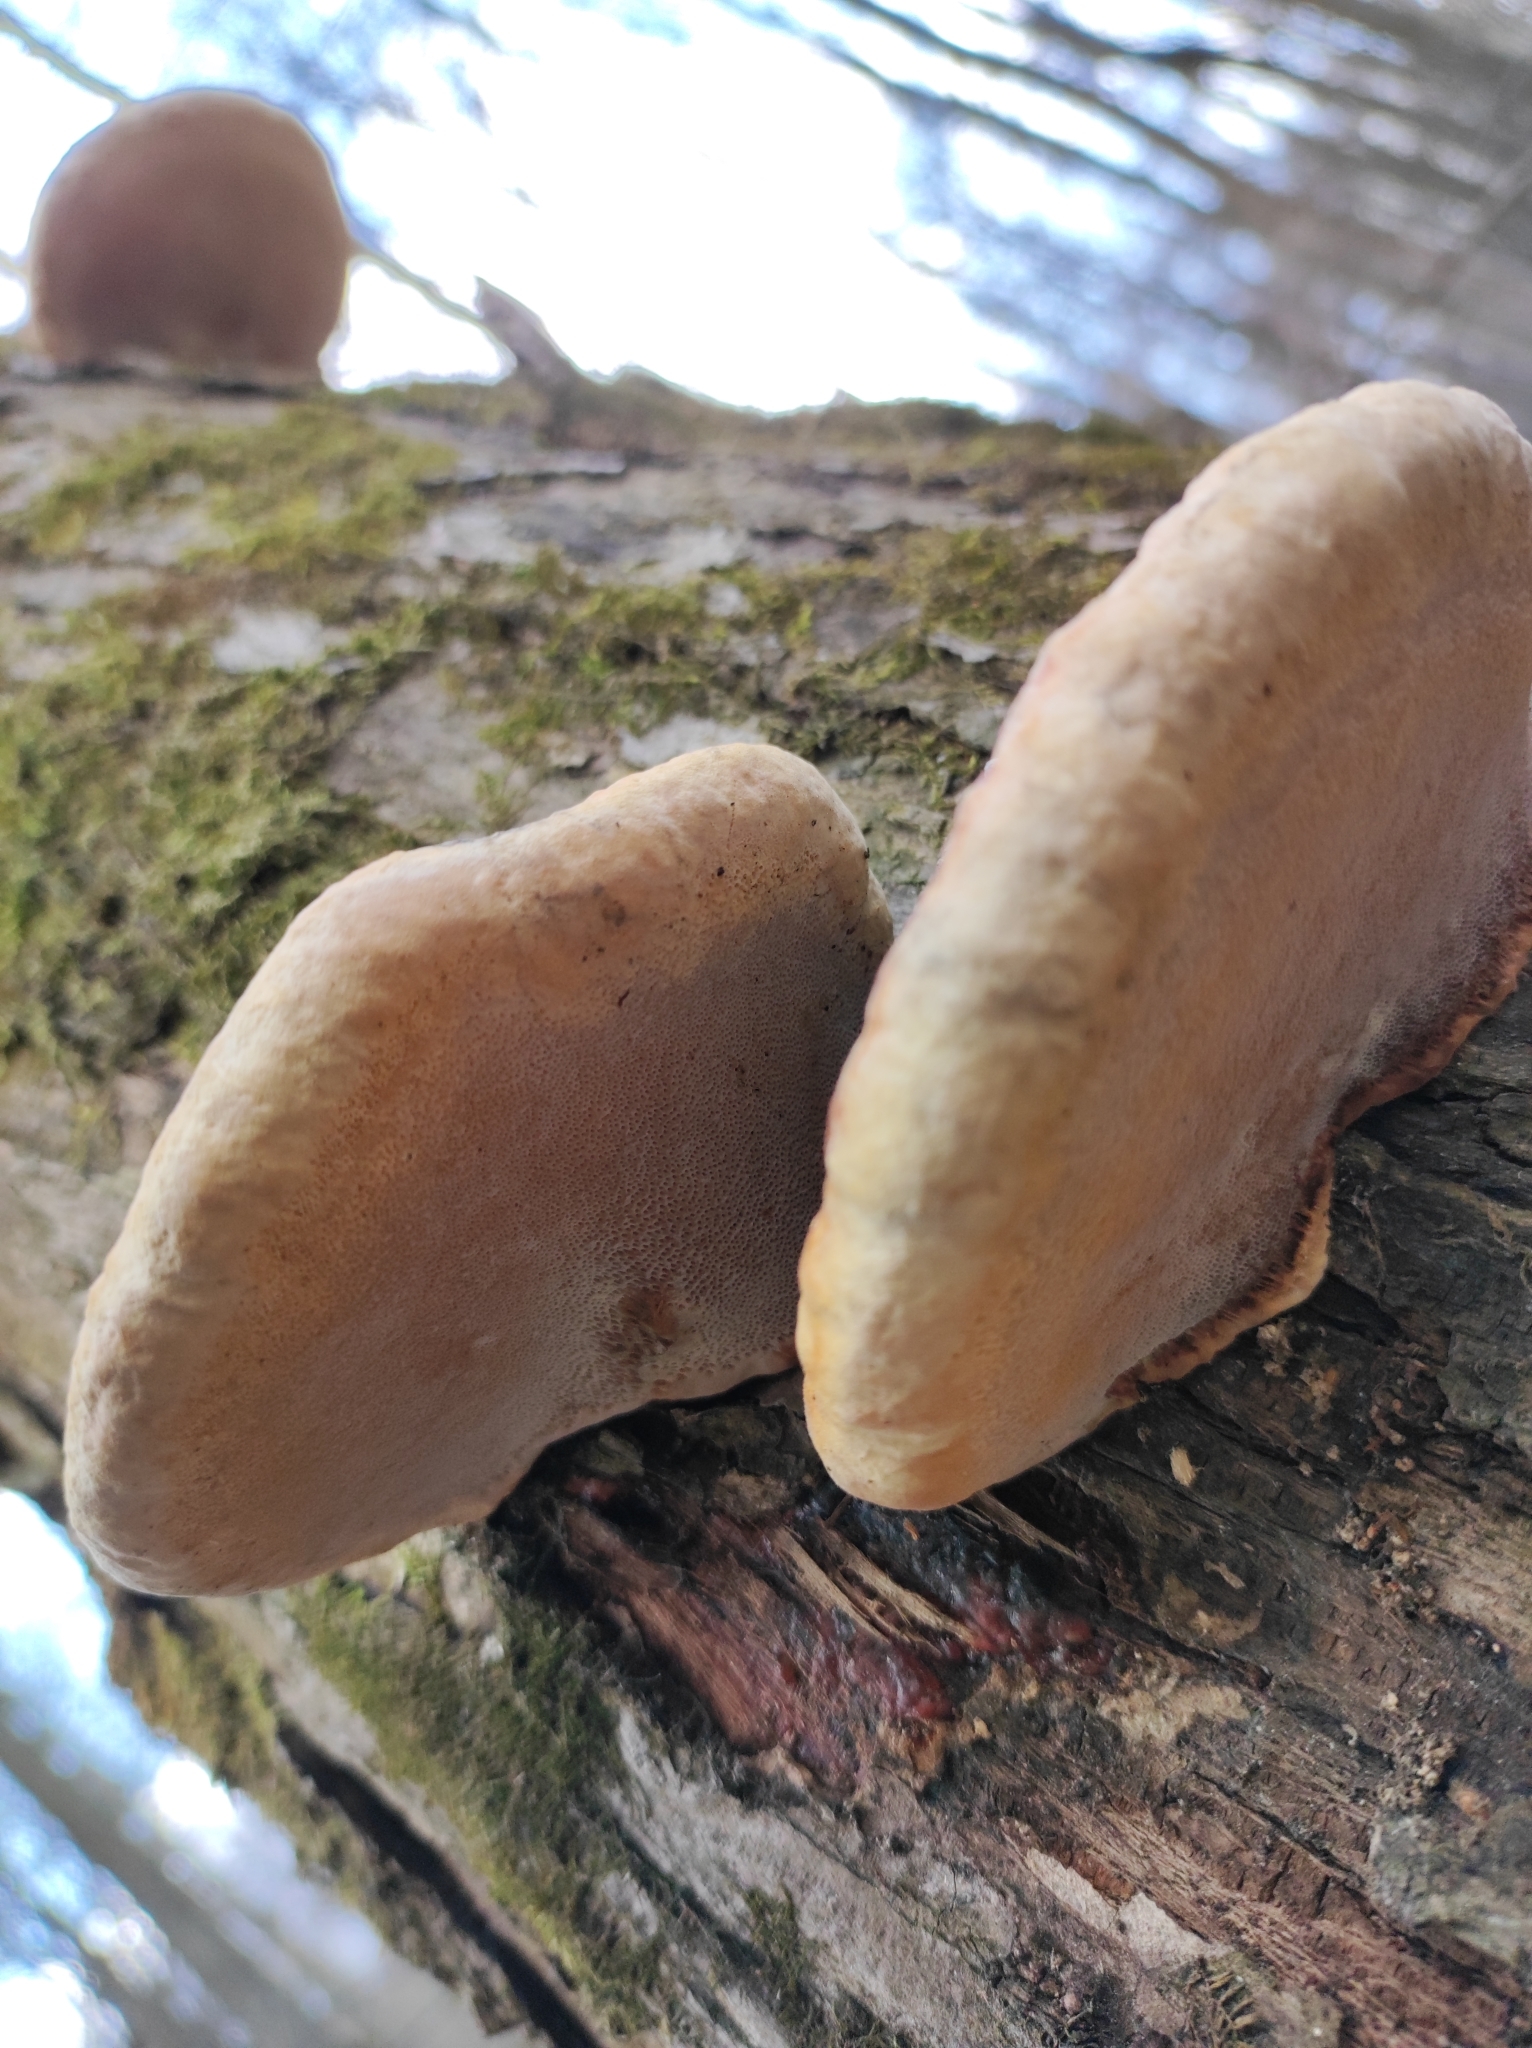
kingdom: Fungi
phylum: Basidiomycota
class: Agaricomycetes
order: Polyporales
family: Fomitopsidaceae
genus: Fomitopsis
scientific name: Fomitopsis pinicola
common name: Red-belted bracket
